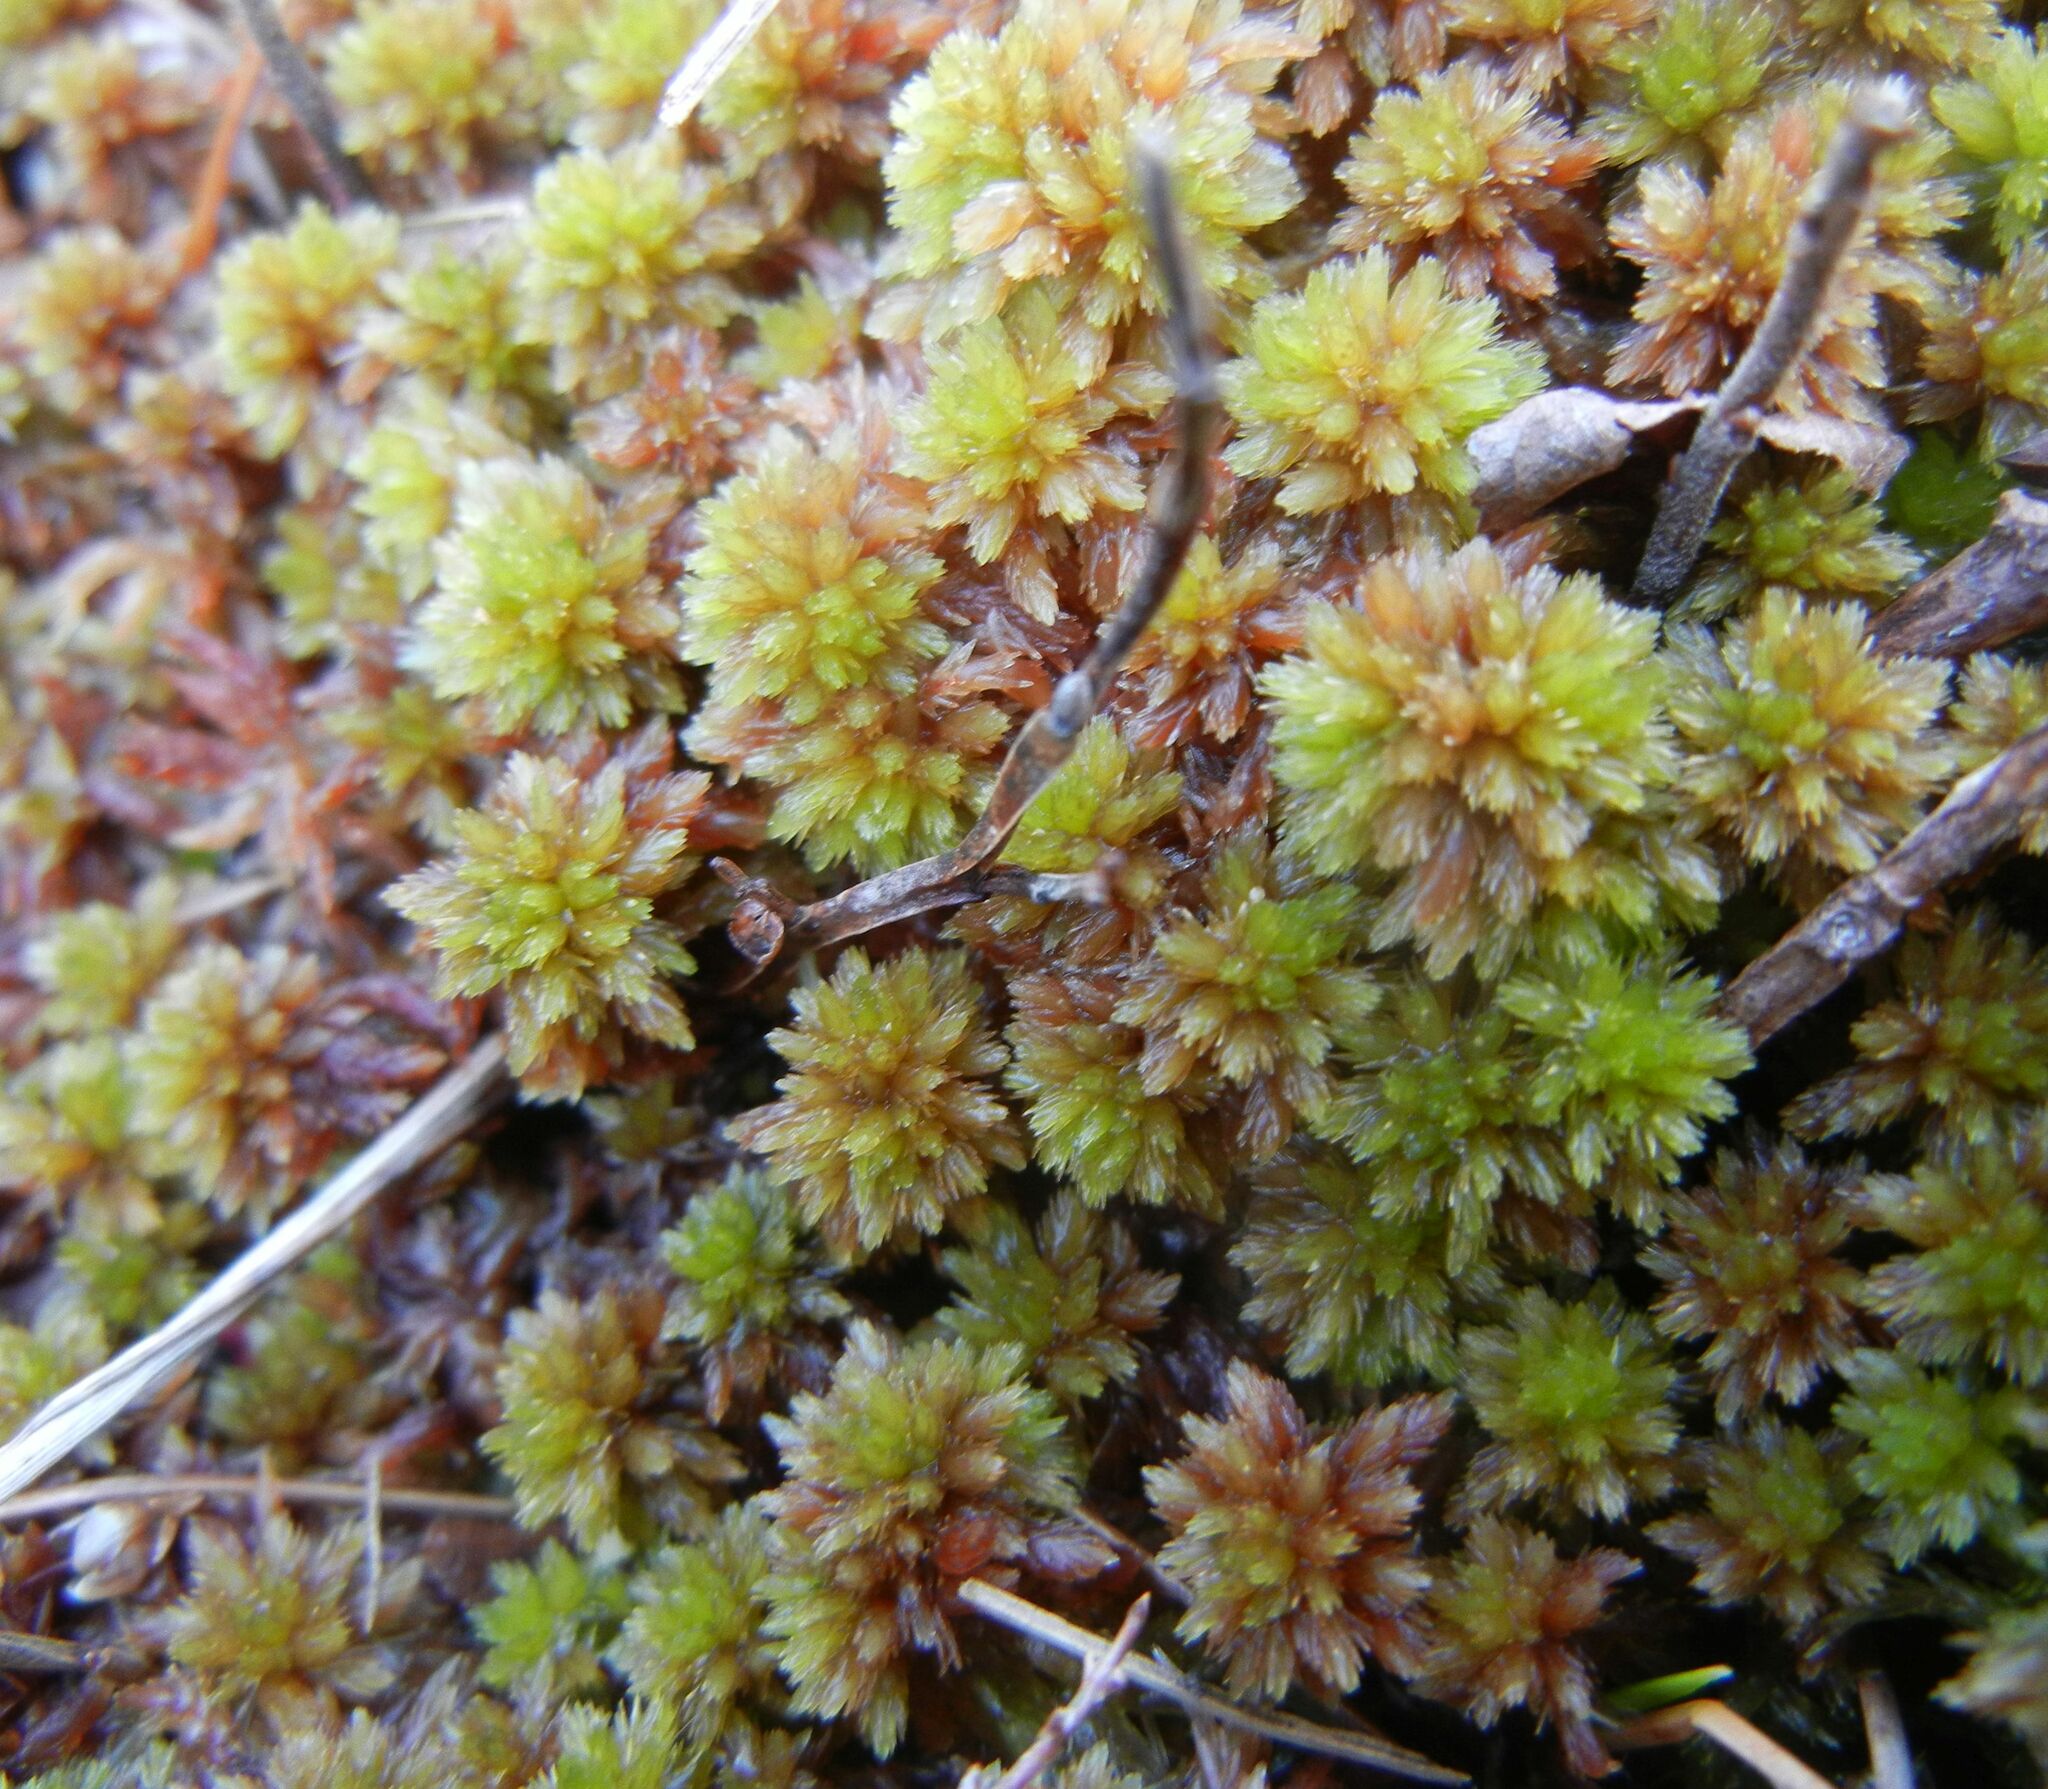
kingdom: Plantae
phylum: Bryophyta
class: Sphagnopsida
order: Sphagnales
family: Sphagnaceae
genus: Sphagnum
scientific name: Sphagnum subnitens
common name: Lustrous bog-moss
